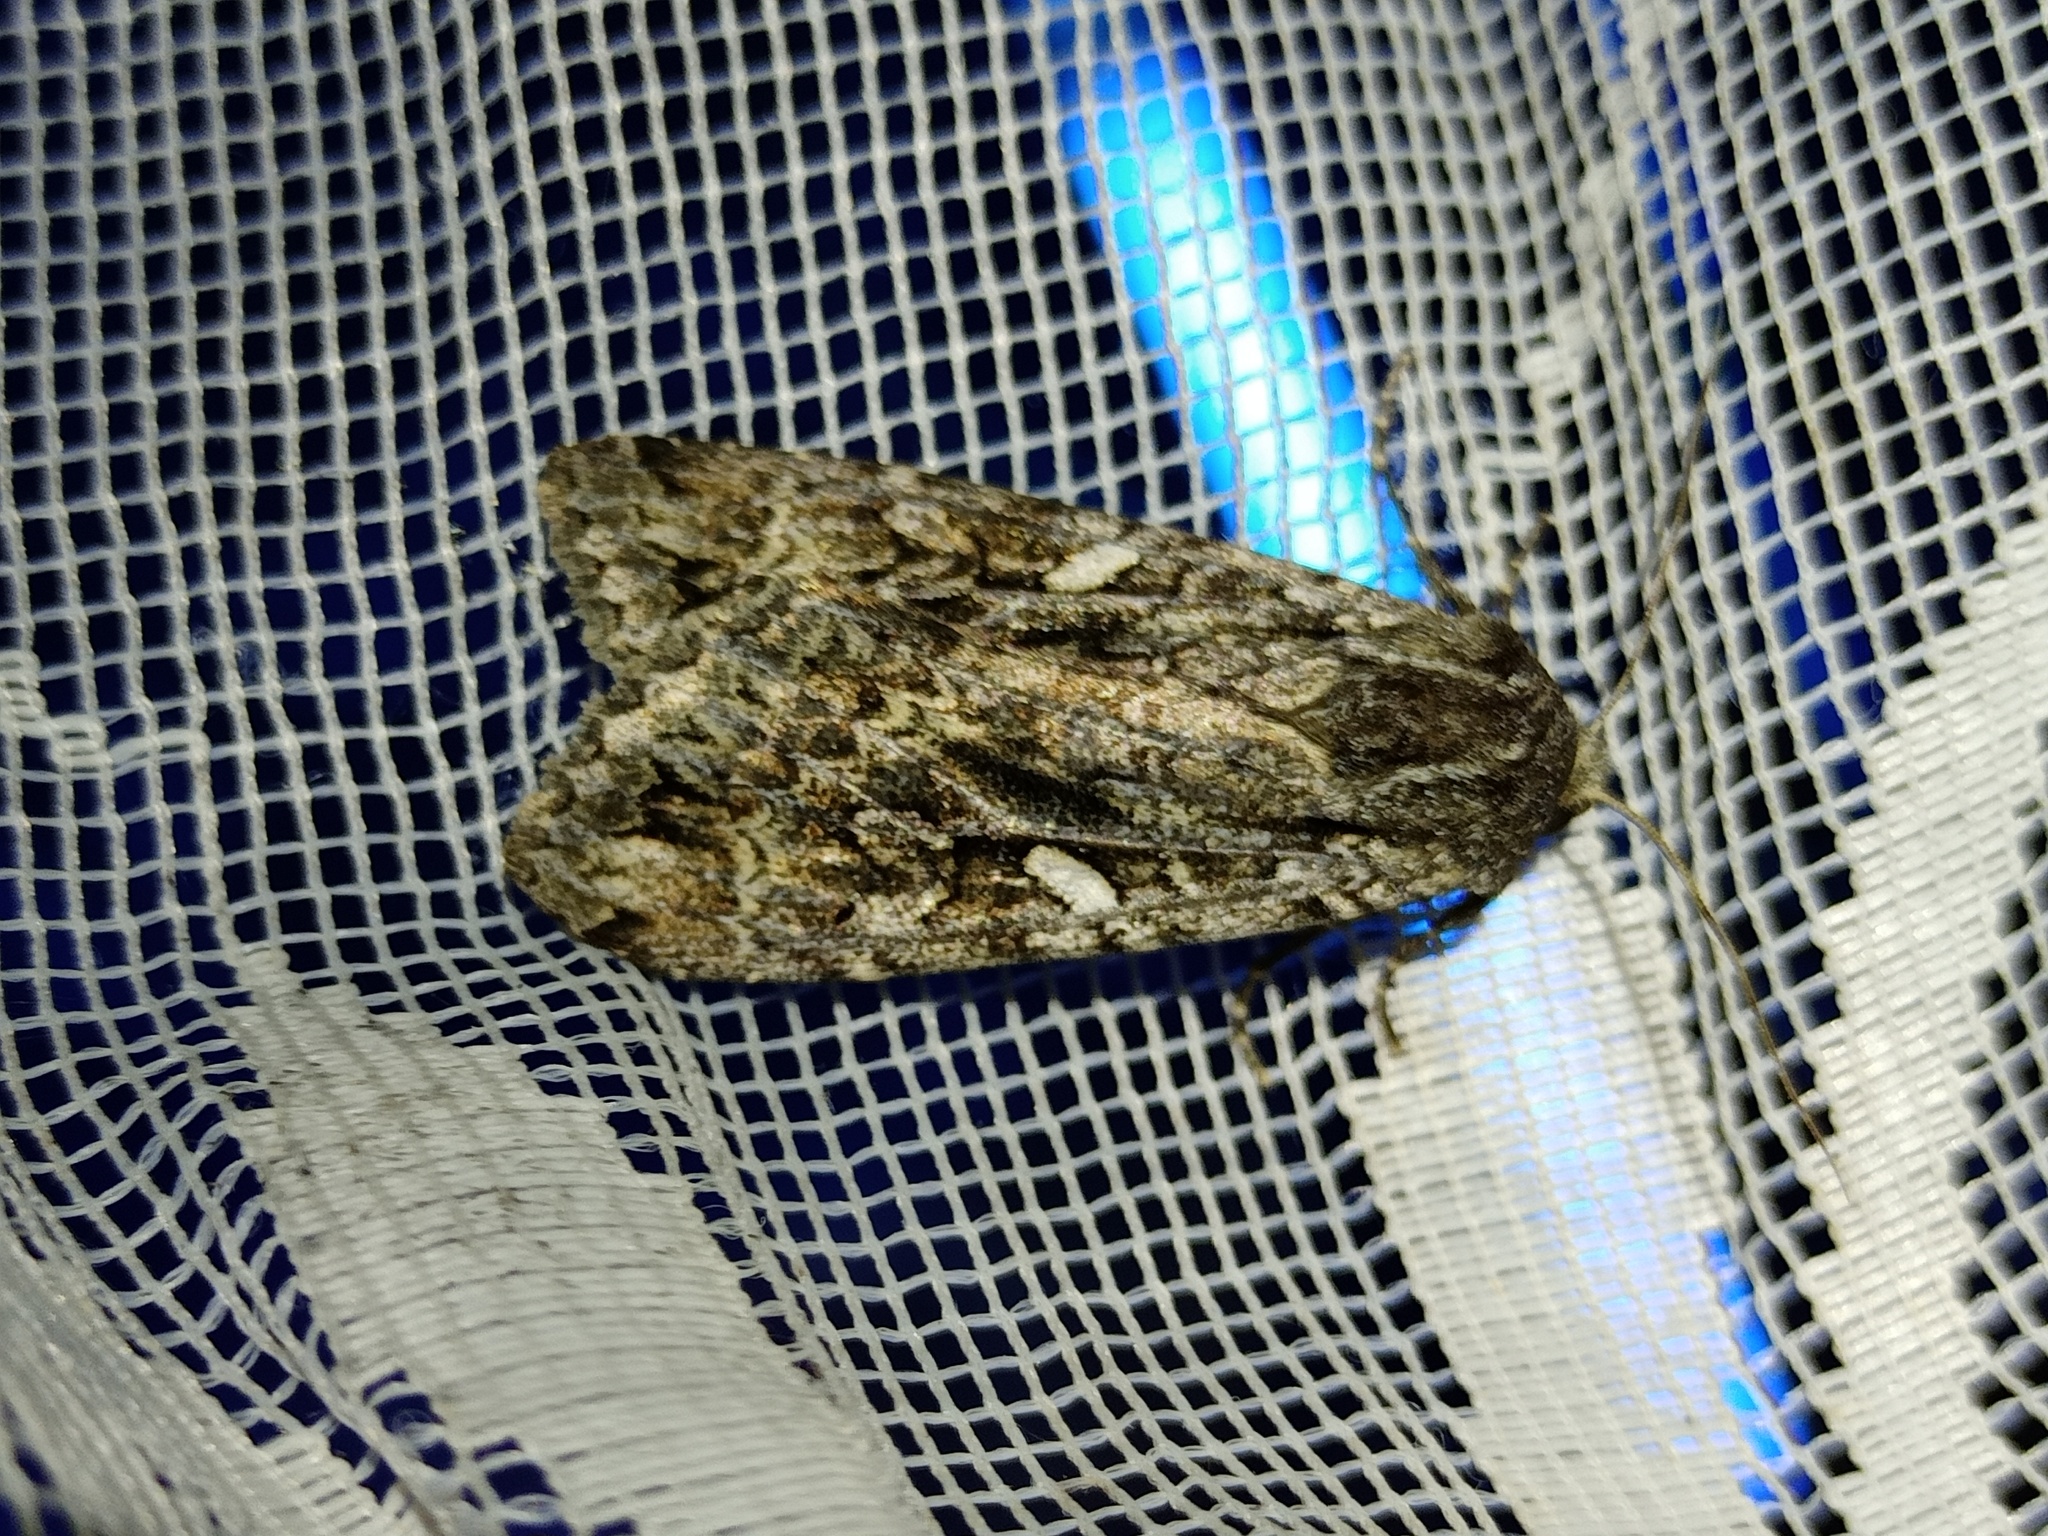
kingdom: Animalia
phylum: Arthropoda
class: Insecta
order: Lepidoptera
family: Noctuidae
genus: Eurois
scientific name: Eurois occulta
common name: Great brocade
